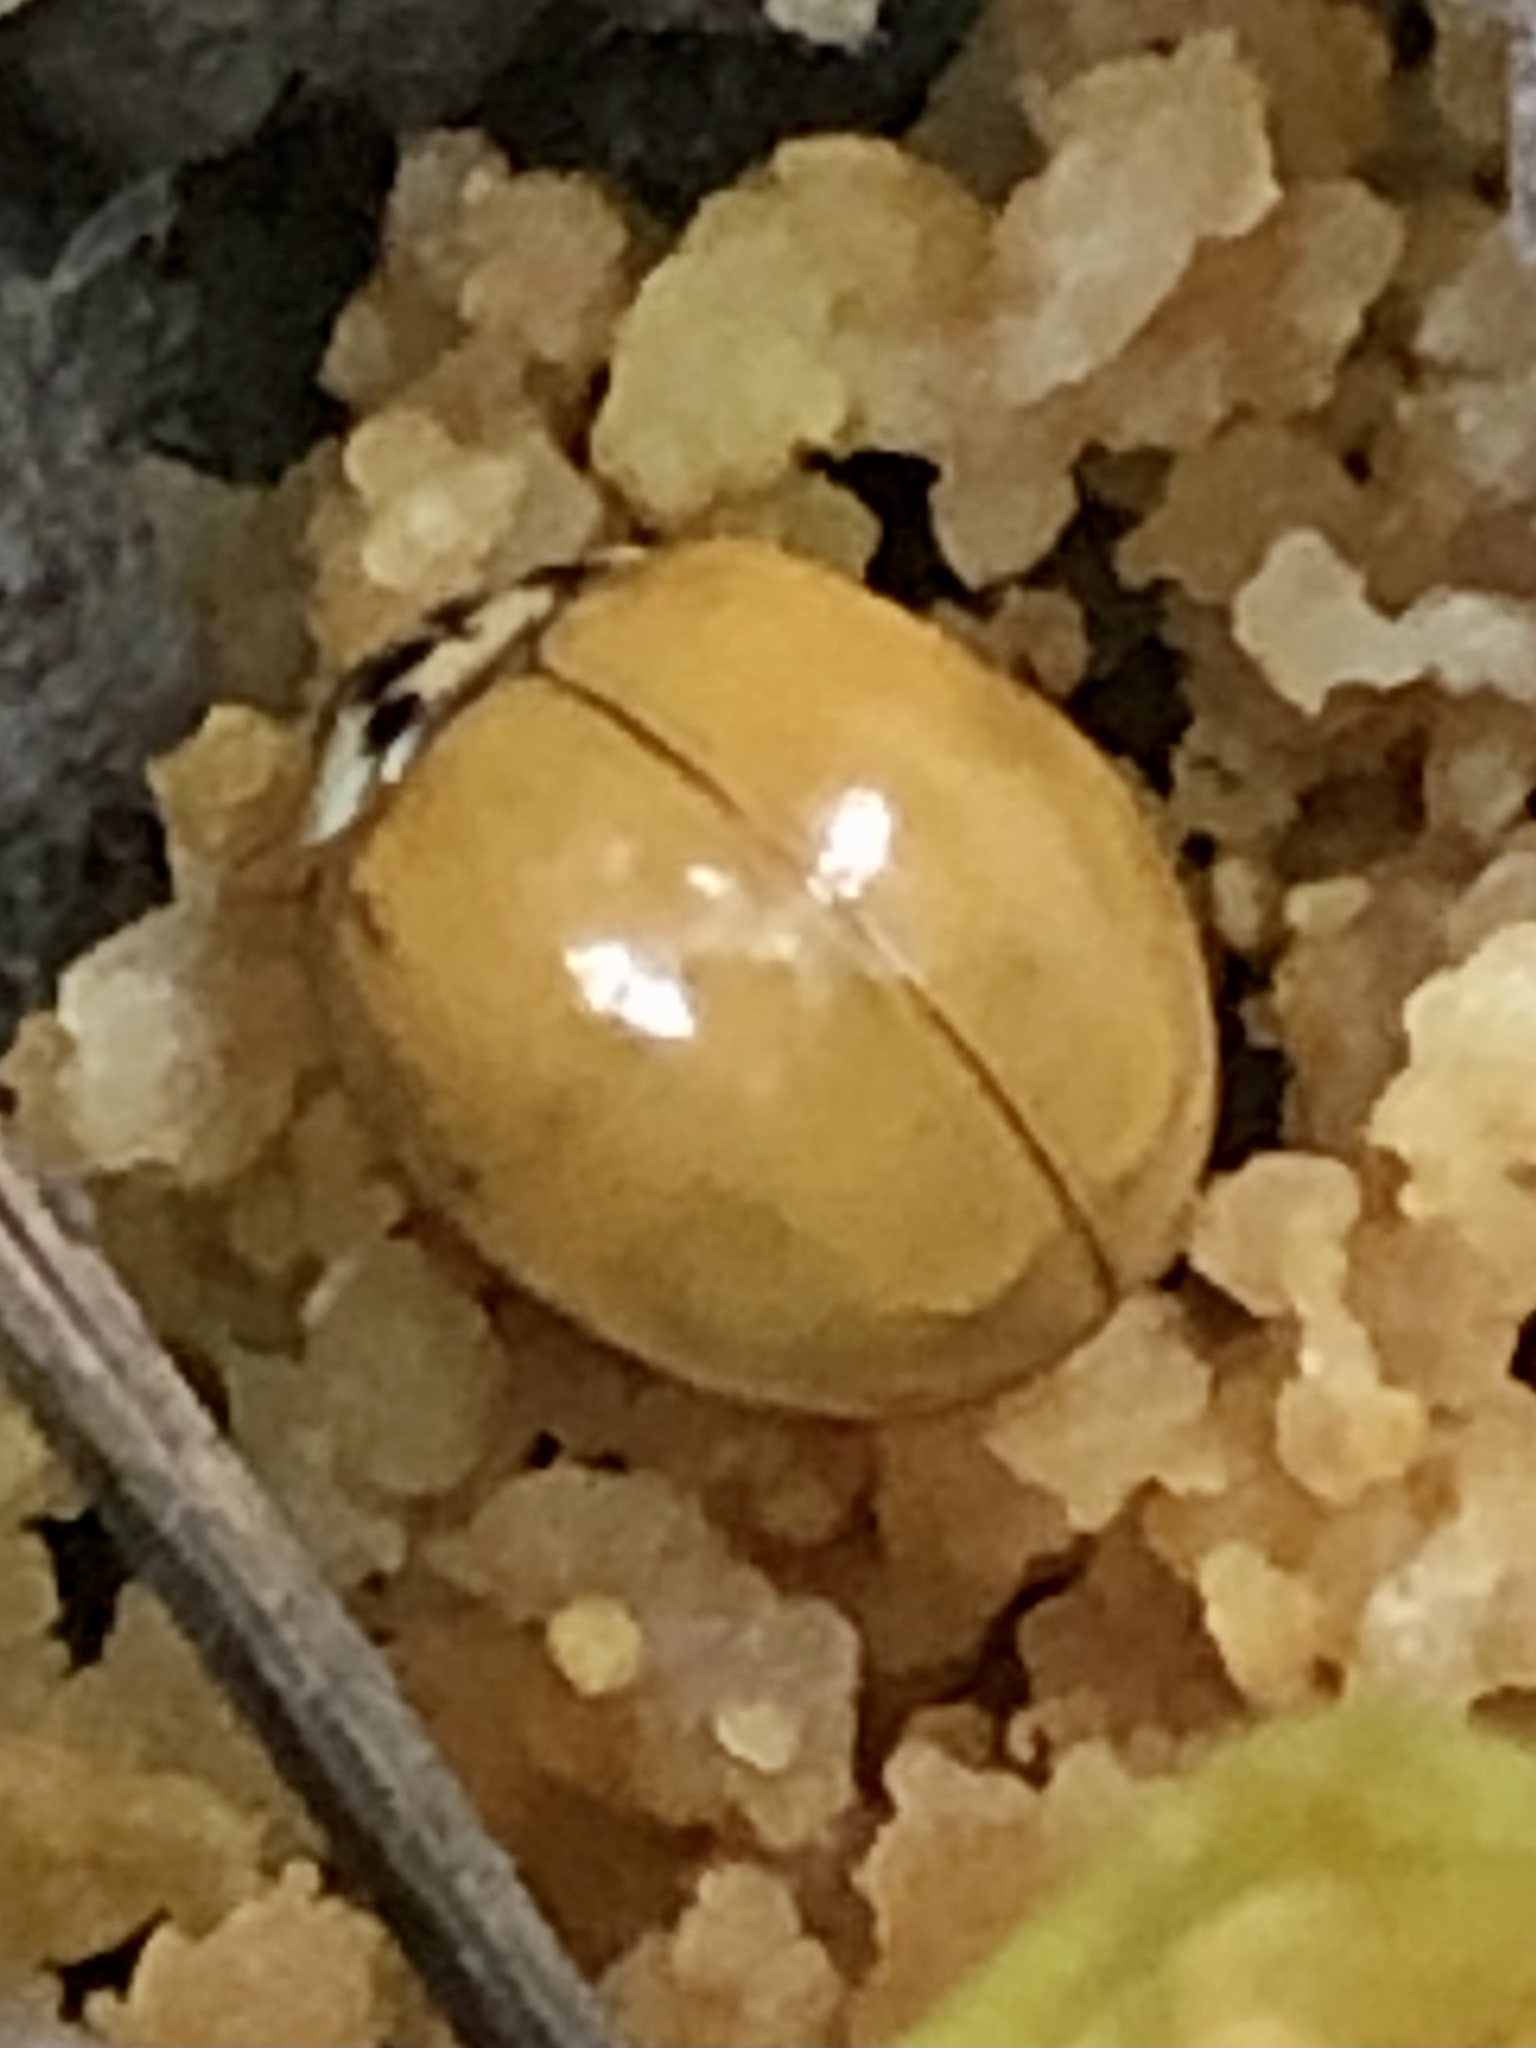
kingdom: Animalia
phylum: Arthropoda
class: Insecta
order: Coleoptera
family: Coccinellidae
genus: Harmonia
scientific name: Harmonia axyridis
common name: Harlequin ladybird
